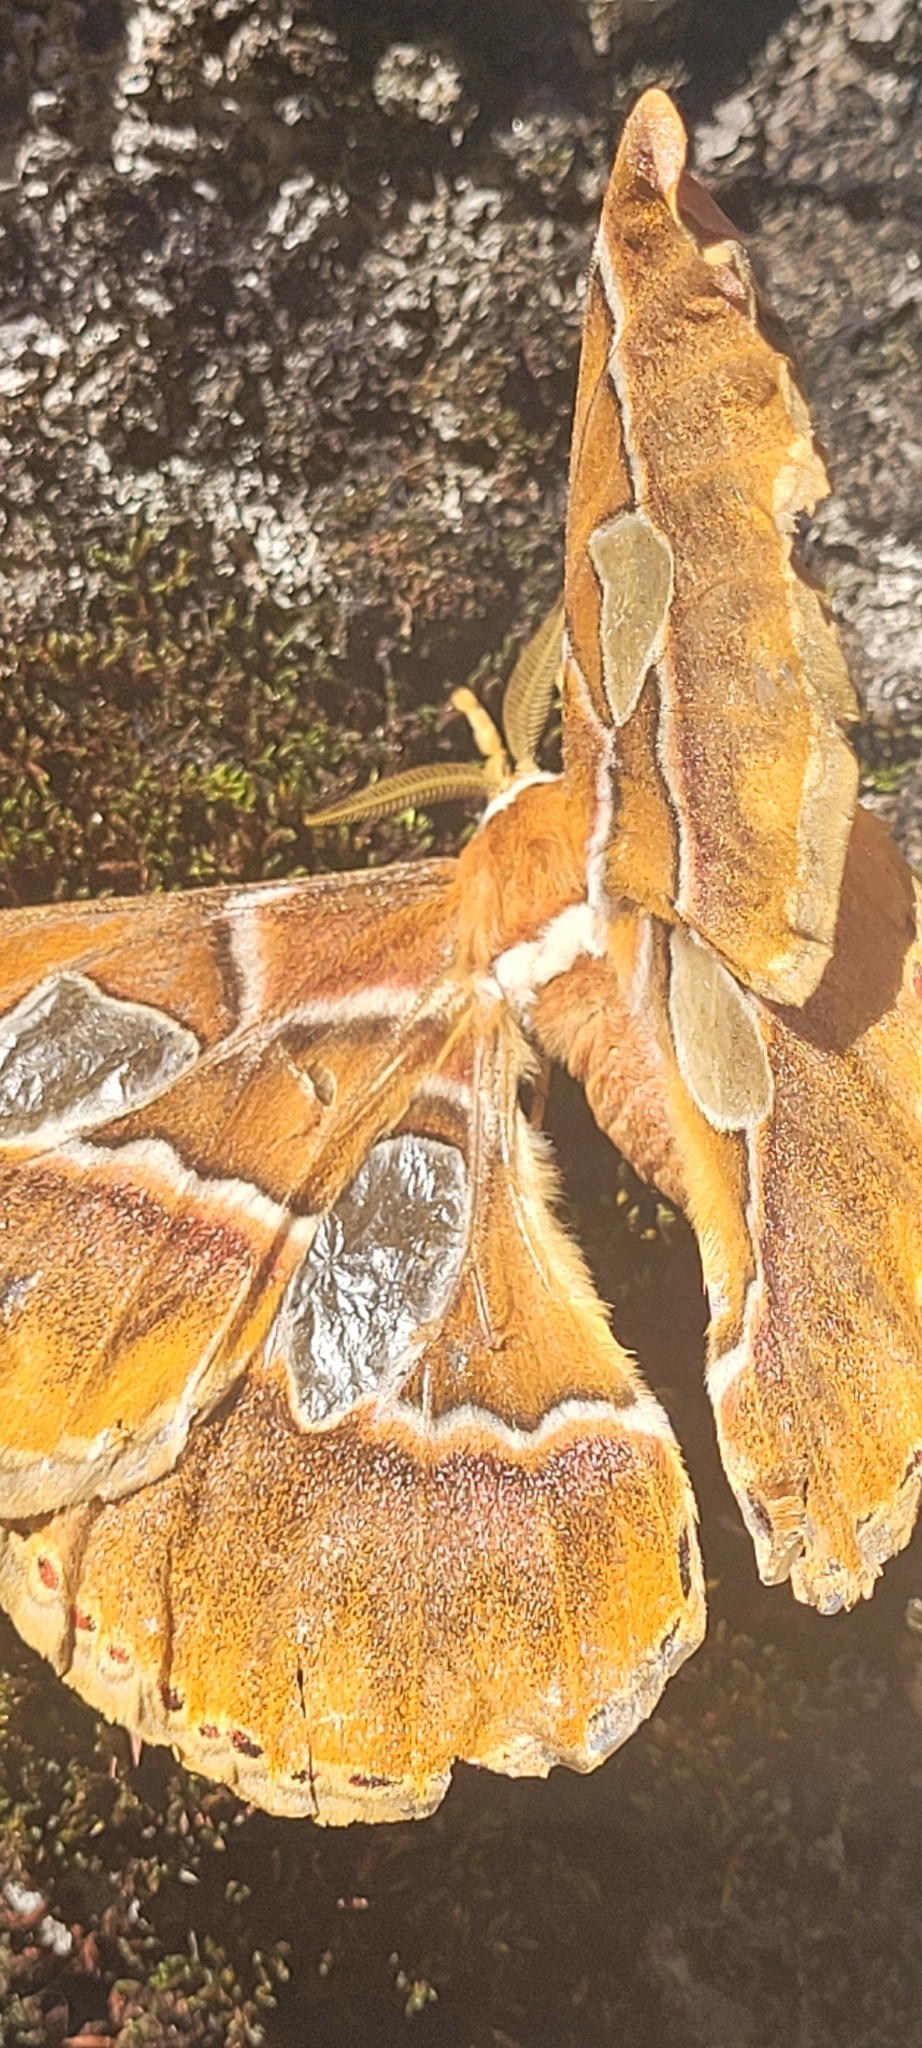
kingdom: Animalia
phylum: Arthropoda
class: Insecta
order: Lepidoptera
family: Saturniidae
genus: Rothschildia
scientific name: Rothschildia hesperus
